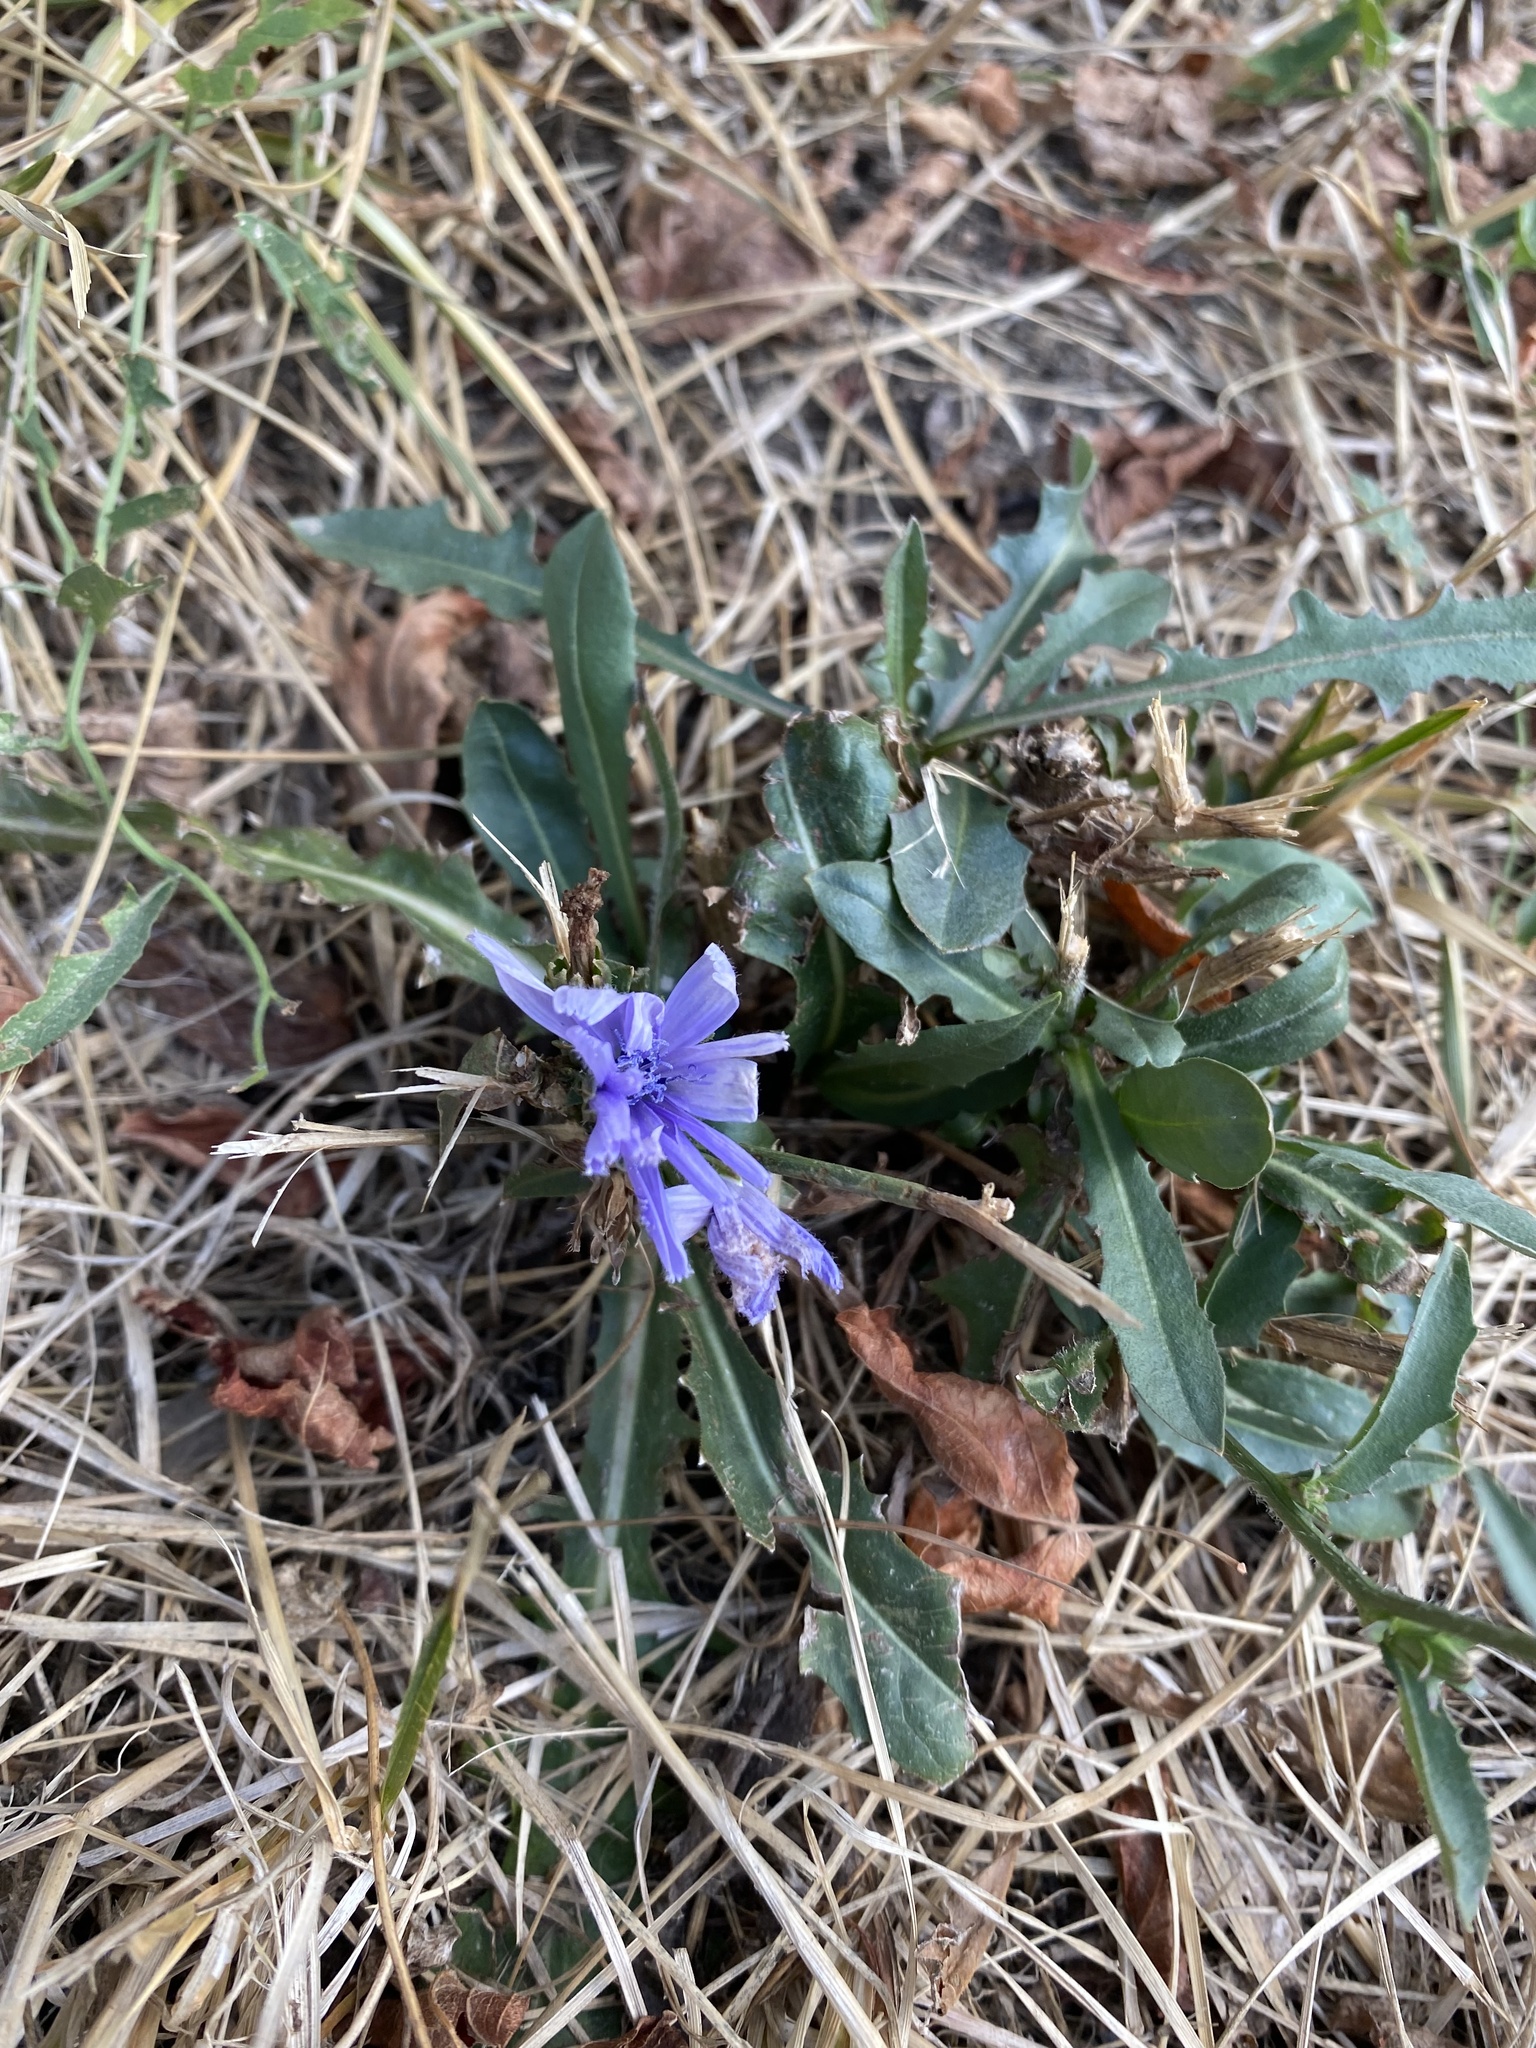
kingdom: Plantae
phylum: Tracheophyta
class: Magnoliopsida
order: Asterales
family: Asteraceae
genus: Cichorium
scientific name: Cichorium intybus
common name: Chicory
